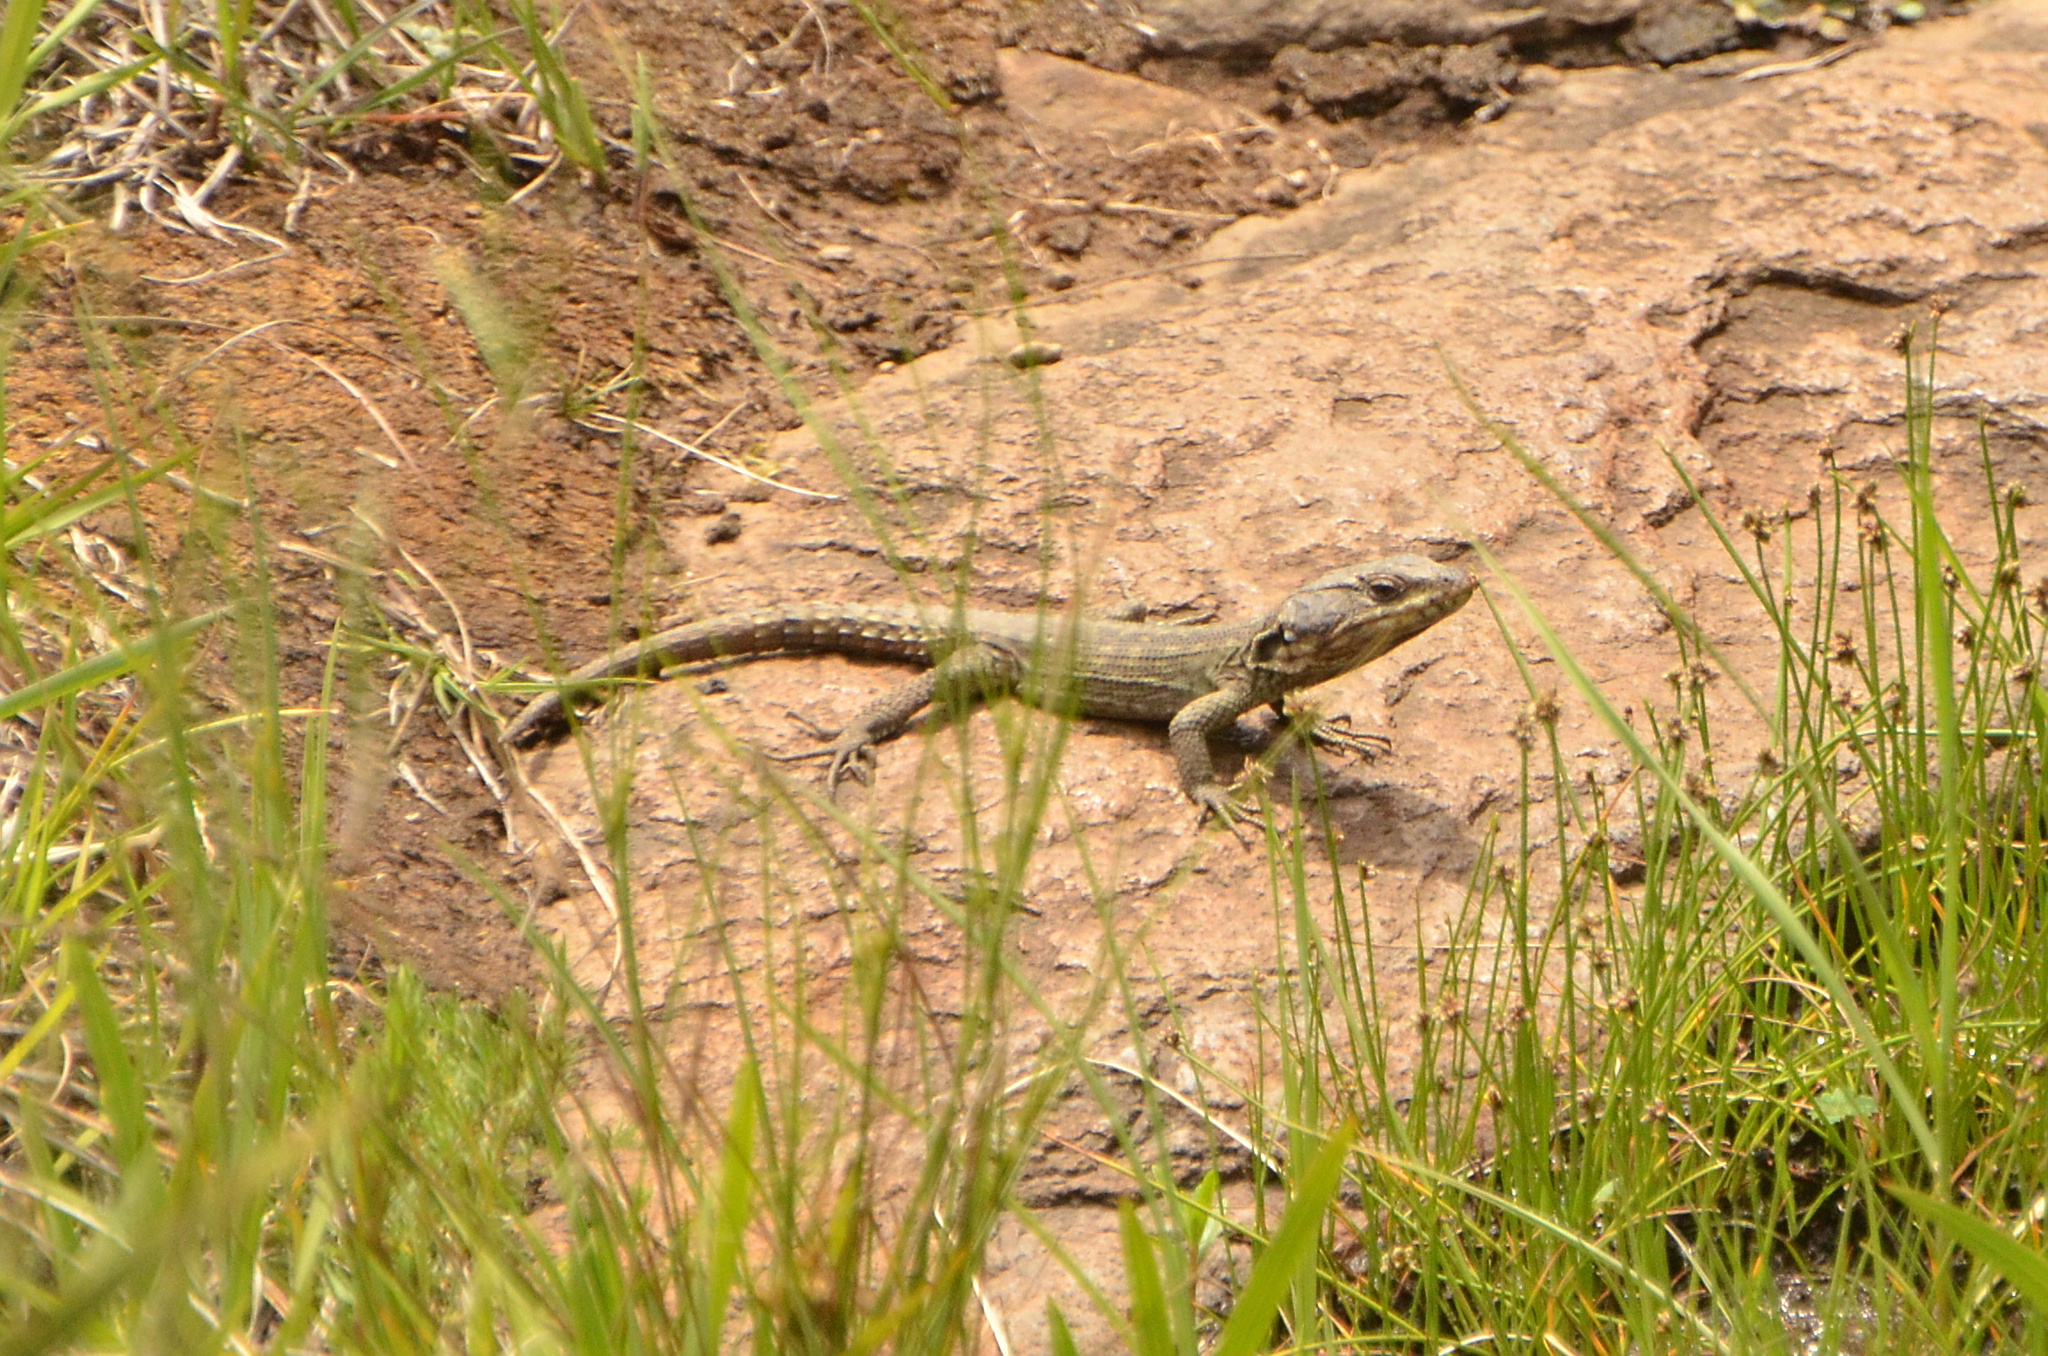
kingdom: Animalia
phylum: Chordata
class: Squamata
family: Cordylidae
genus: Pseudocordylus
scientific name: Pseudocordylus subviridis
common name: Drakensberg crag lizard
